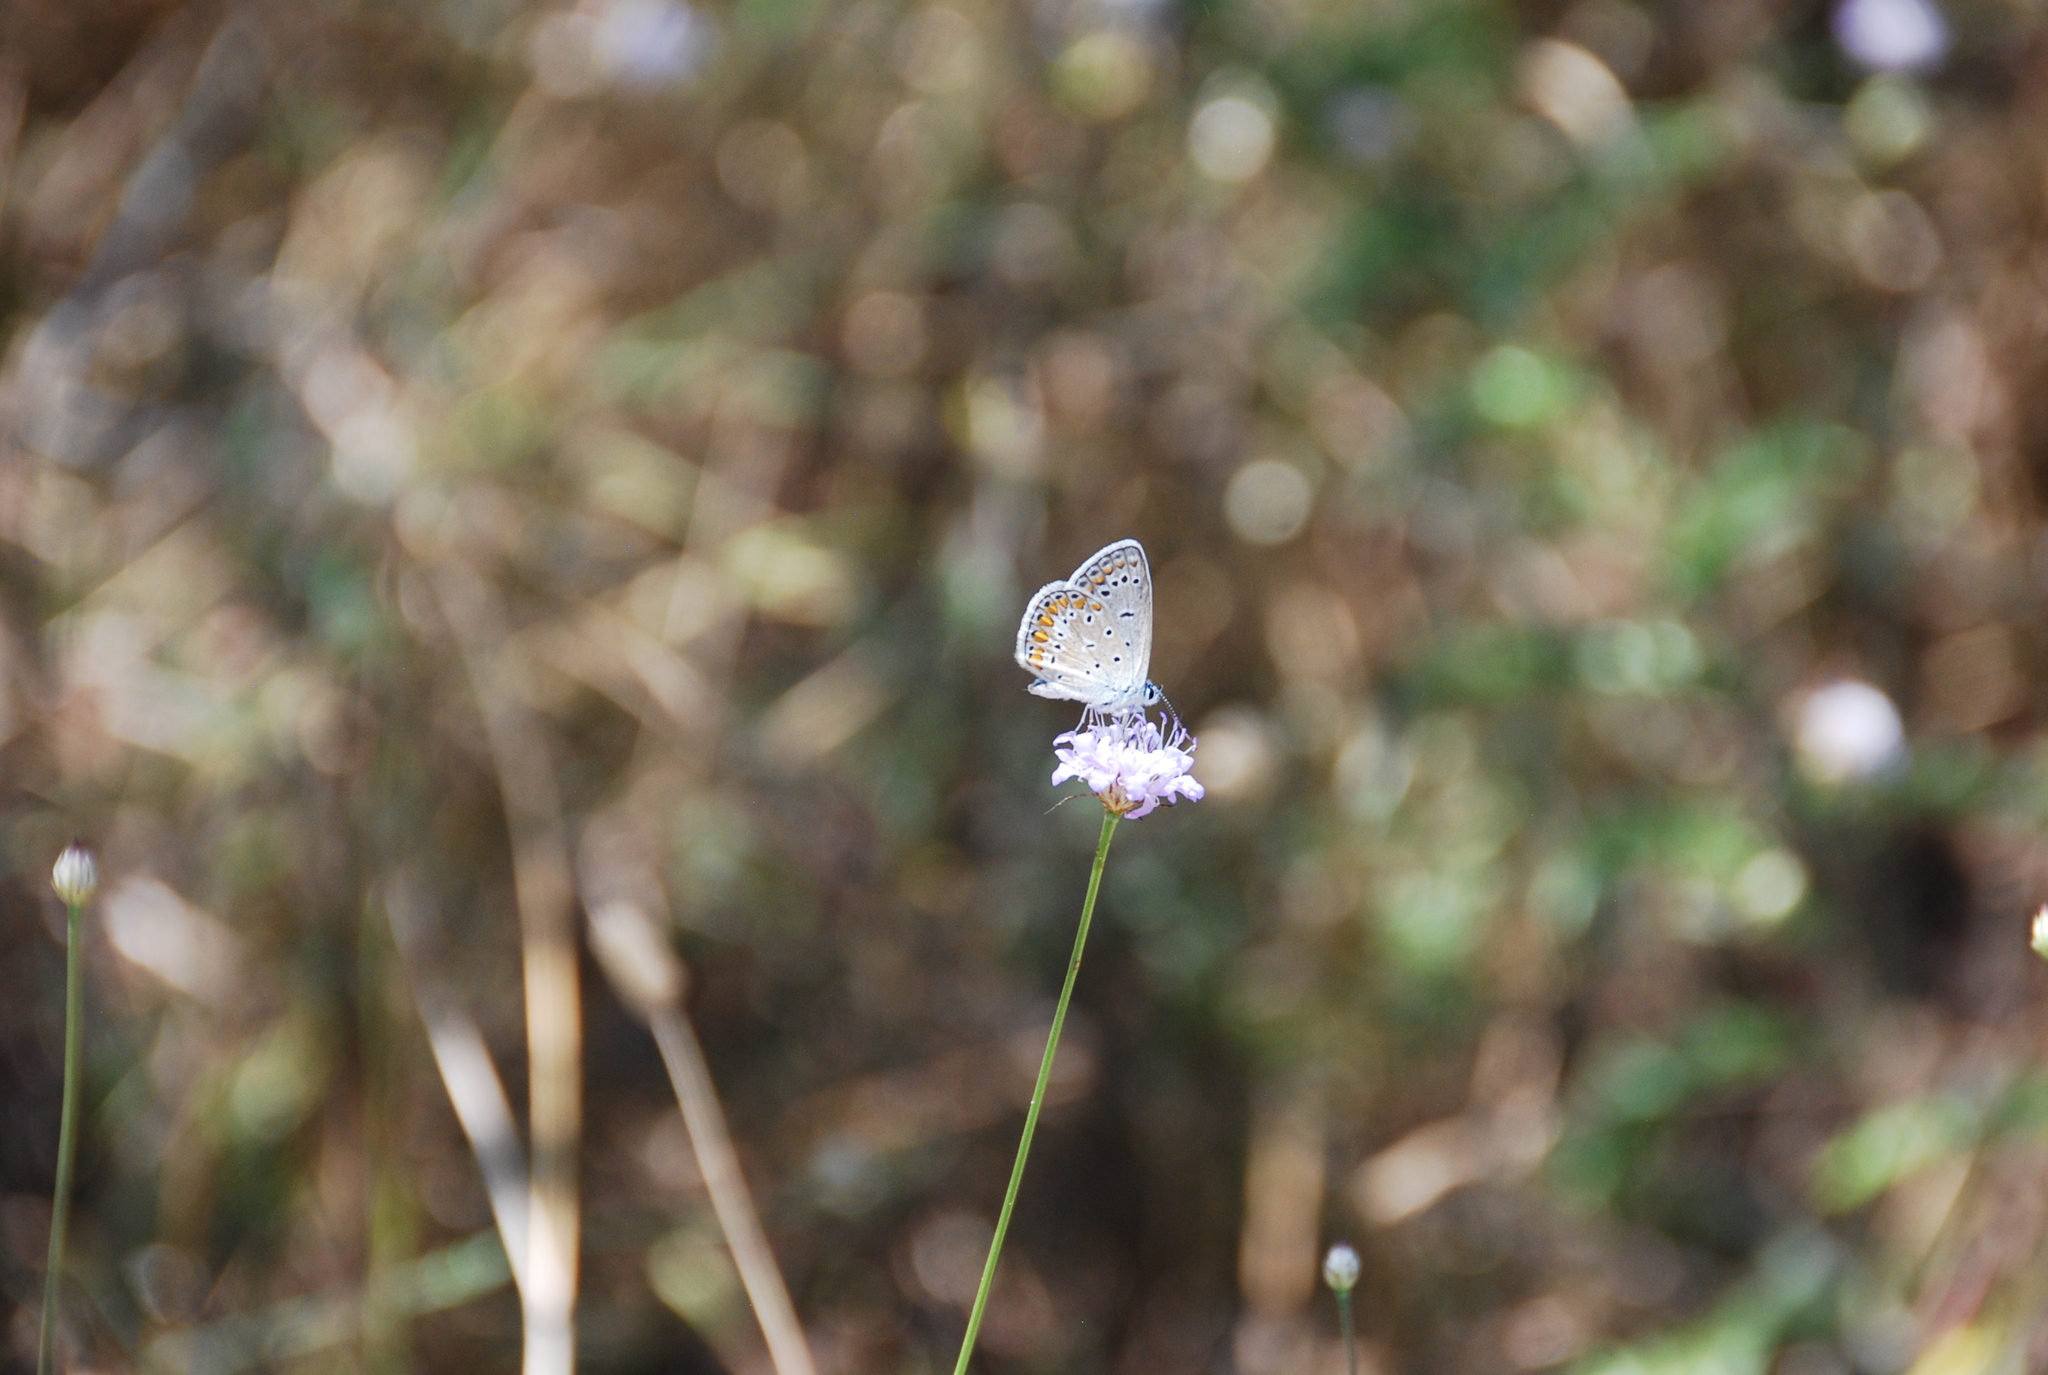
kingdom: Animalia
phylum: Arthropoda
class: Insecta
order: Lepidoptera
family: Lycaenidae
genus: Polyommatus
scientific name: Polyommatus icarus
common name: Common blue
